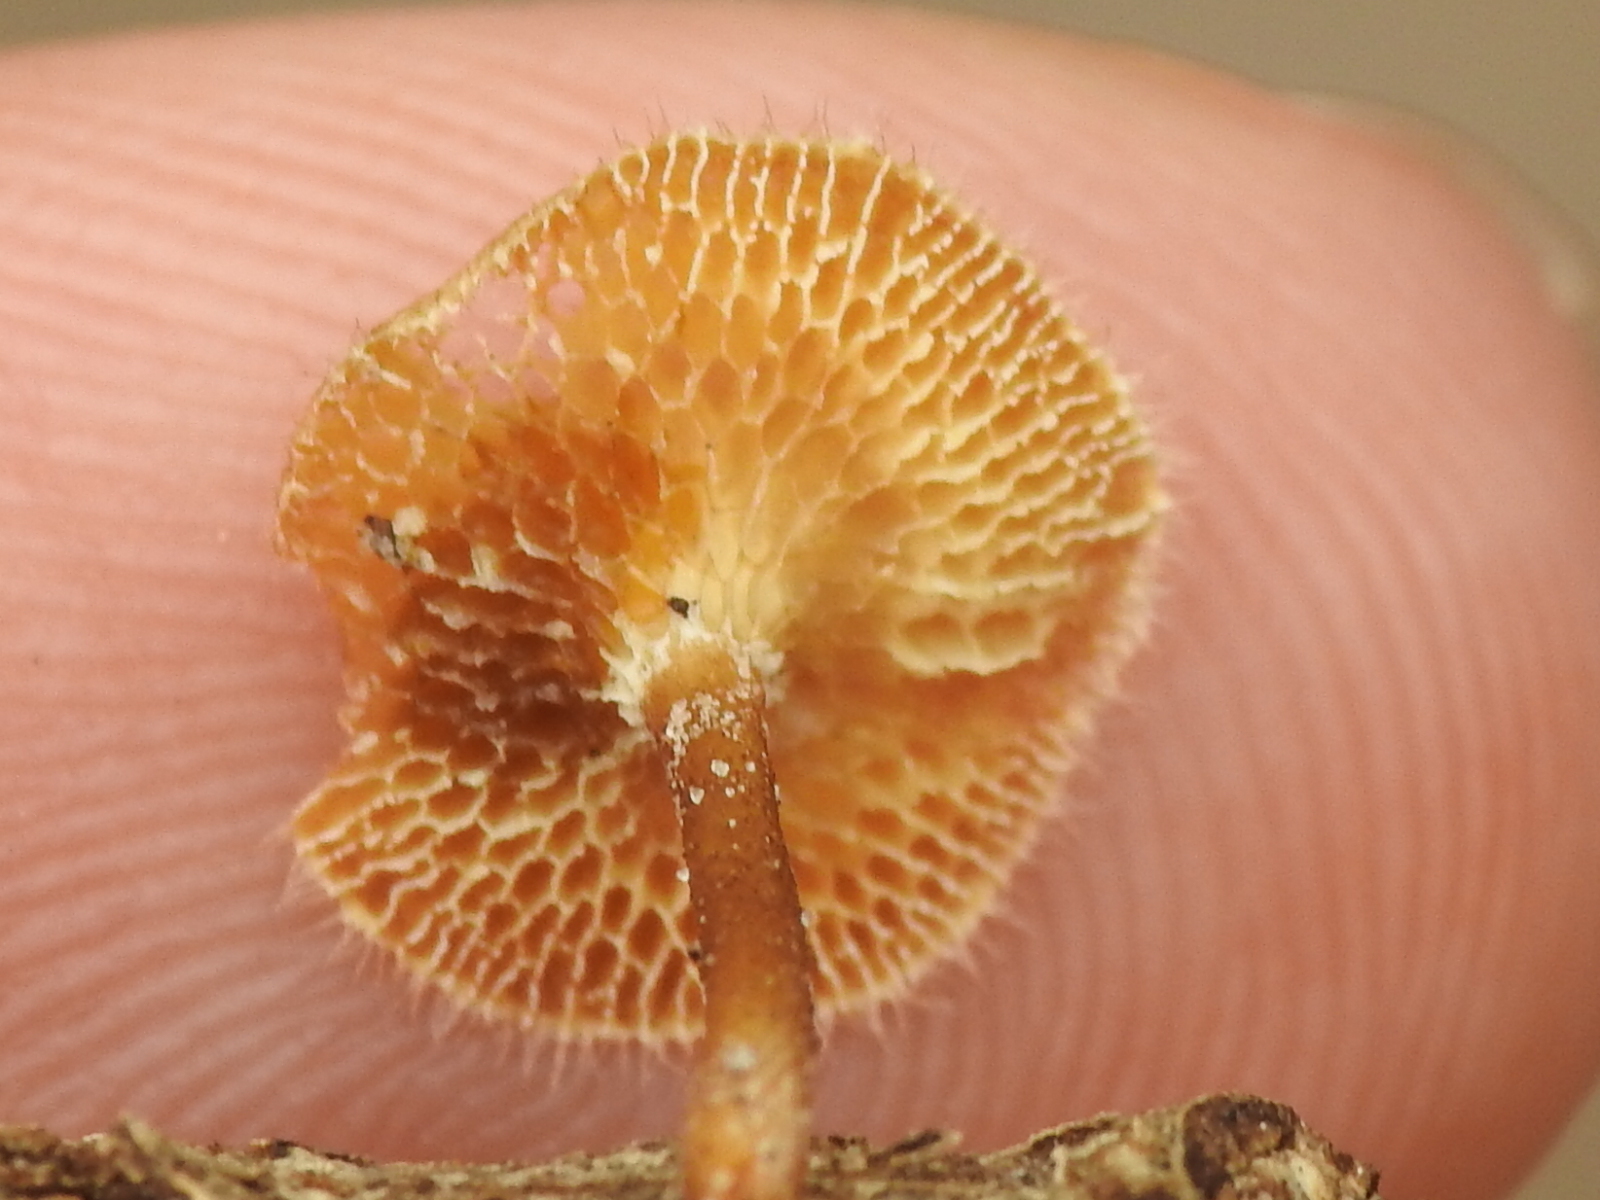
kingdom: Fungi
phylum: Basidiomycota
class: Agaricomycetes
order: Polyporales
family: Polyporaceae
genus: Lentinus
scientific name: Lentinus arcularius
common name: Spring polypore
